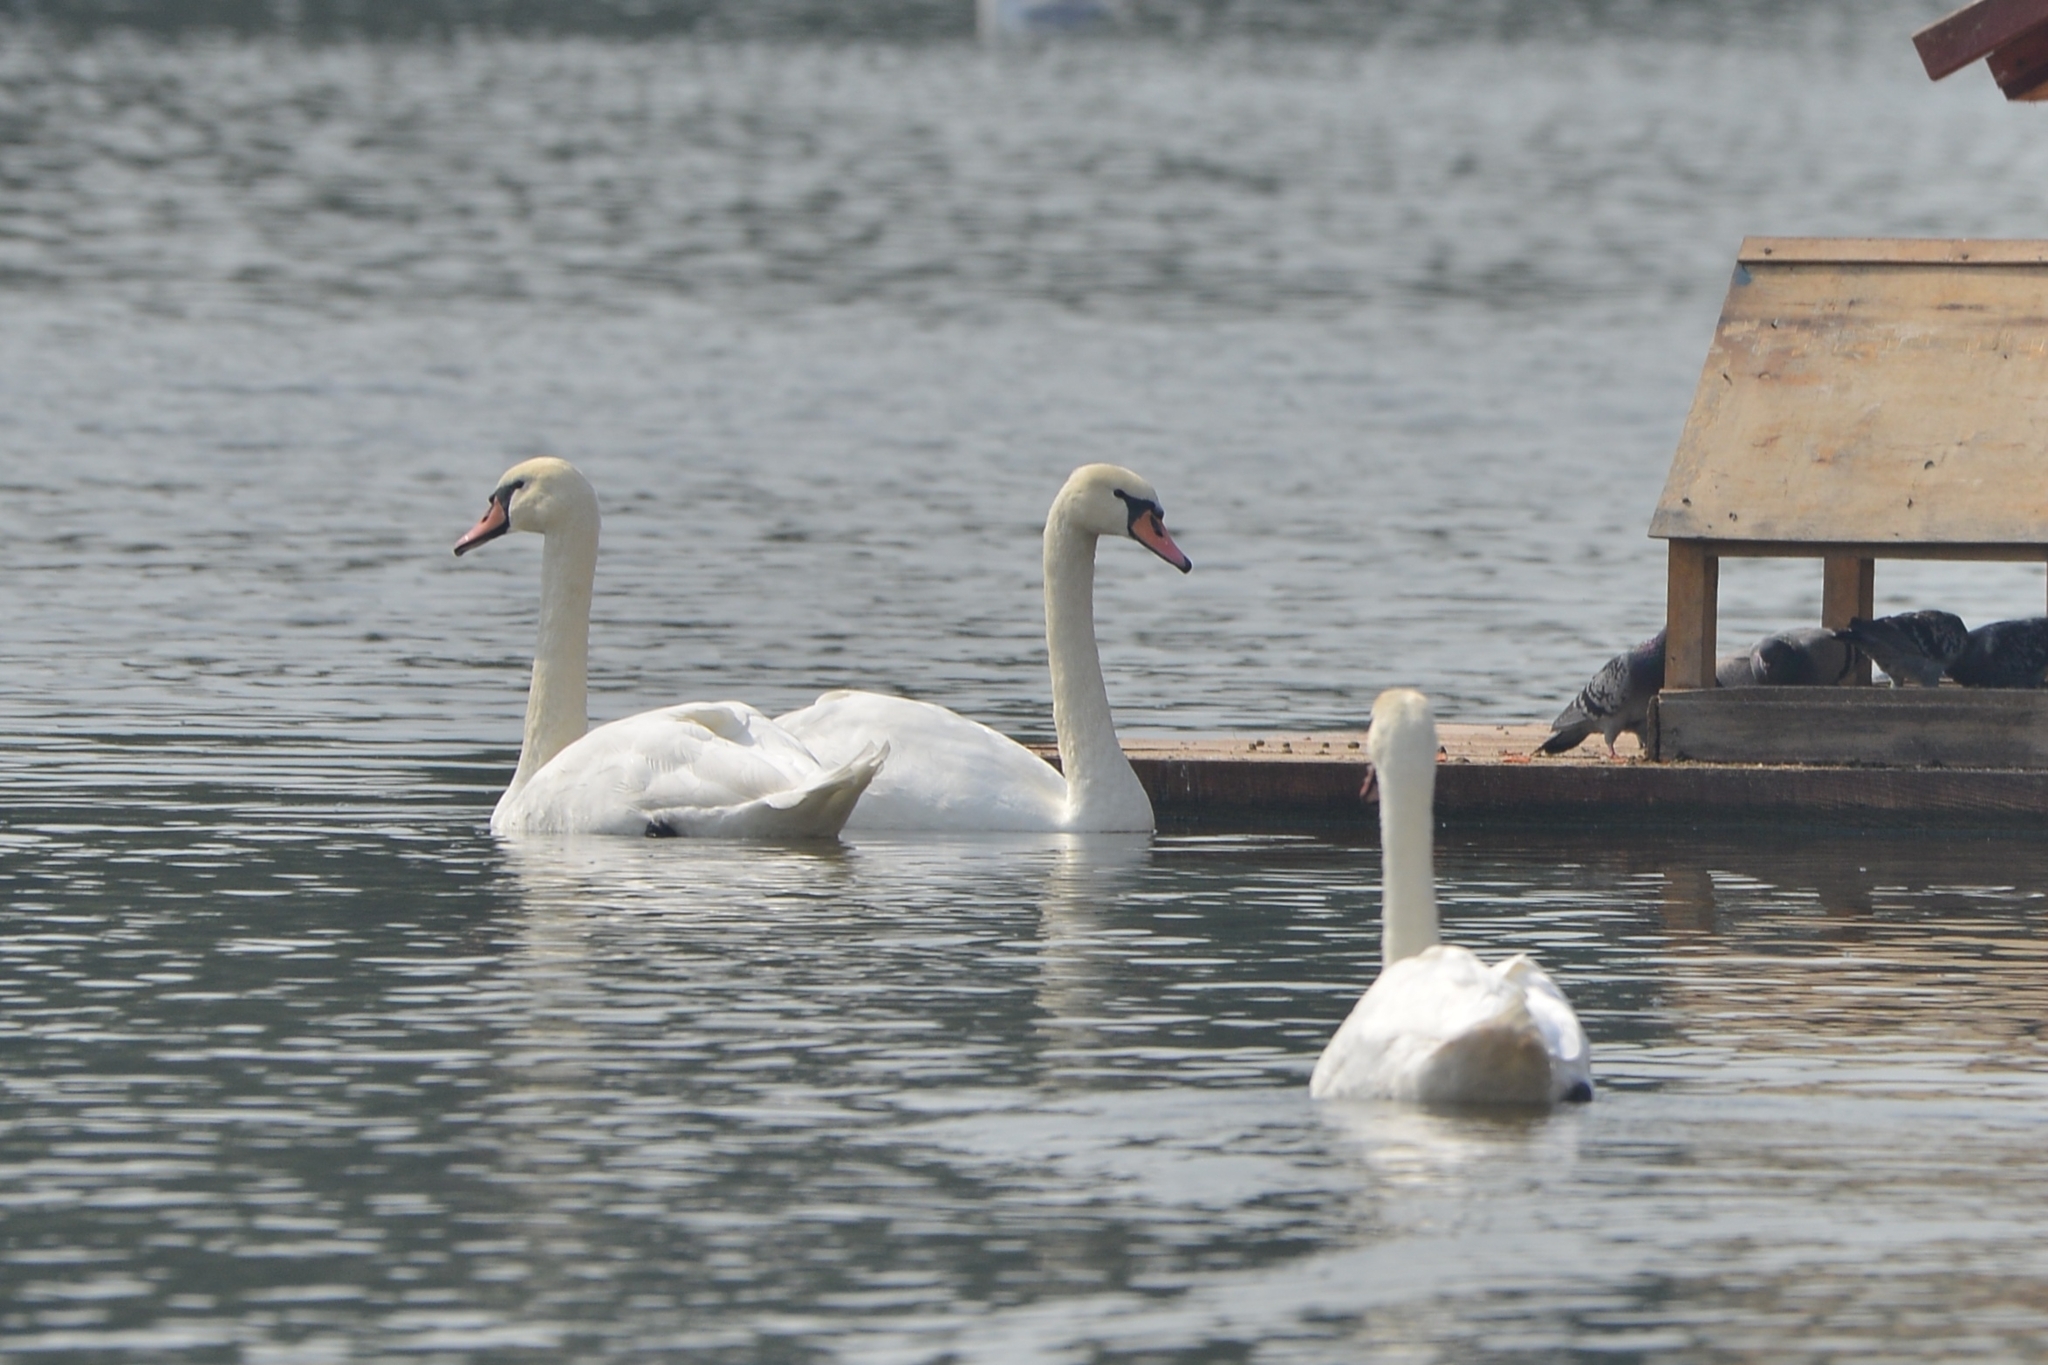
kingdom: Animalia
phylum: Chordata
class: Aves
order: Anseriformes
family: Anatidae
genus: Cygnus
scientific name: Cygnus olor
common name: Mute swan
